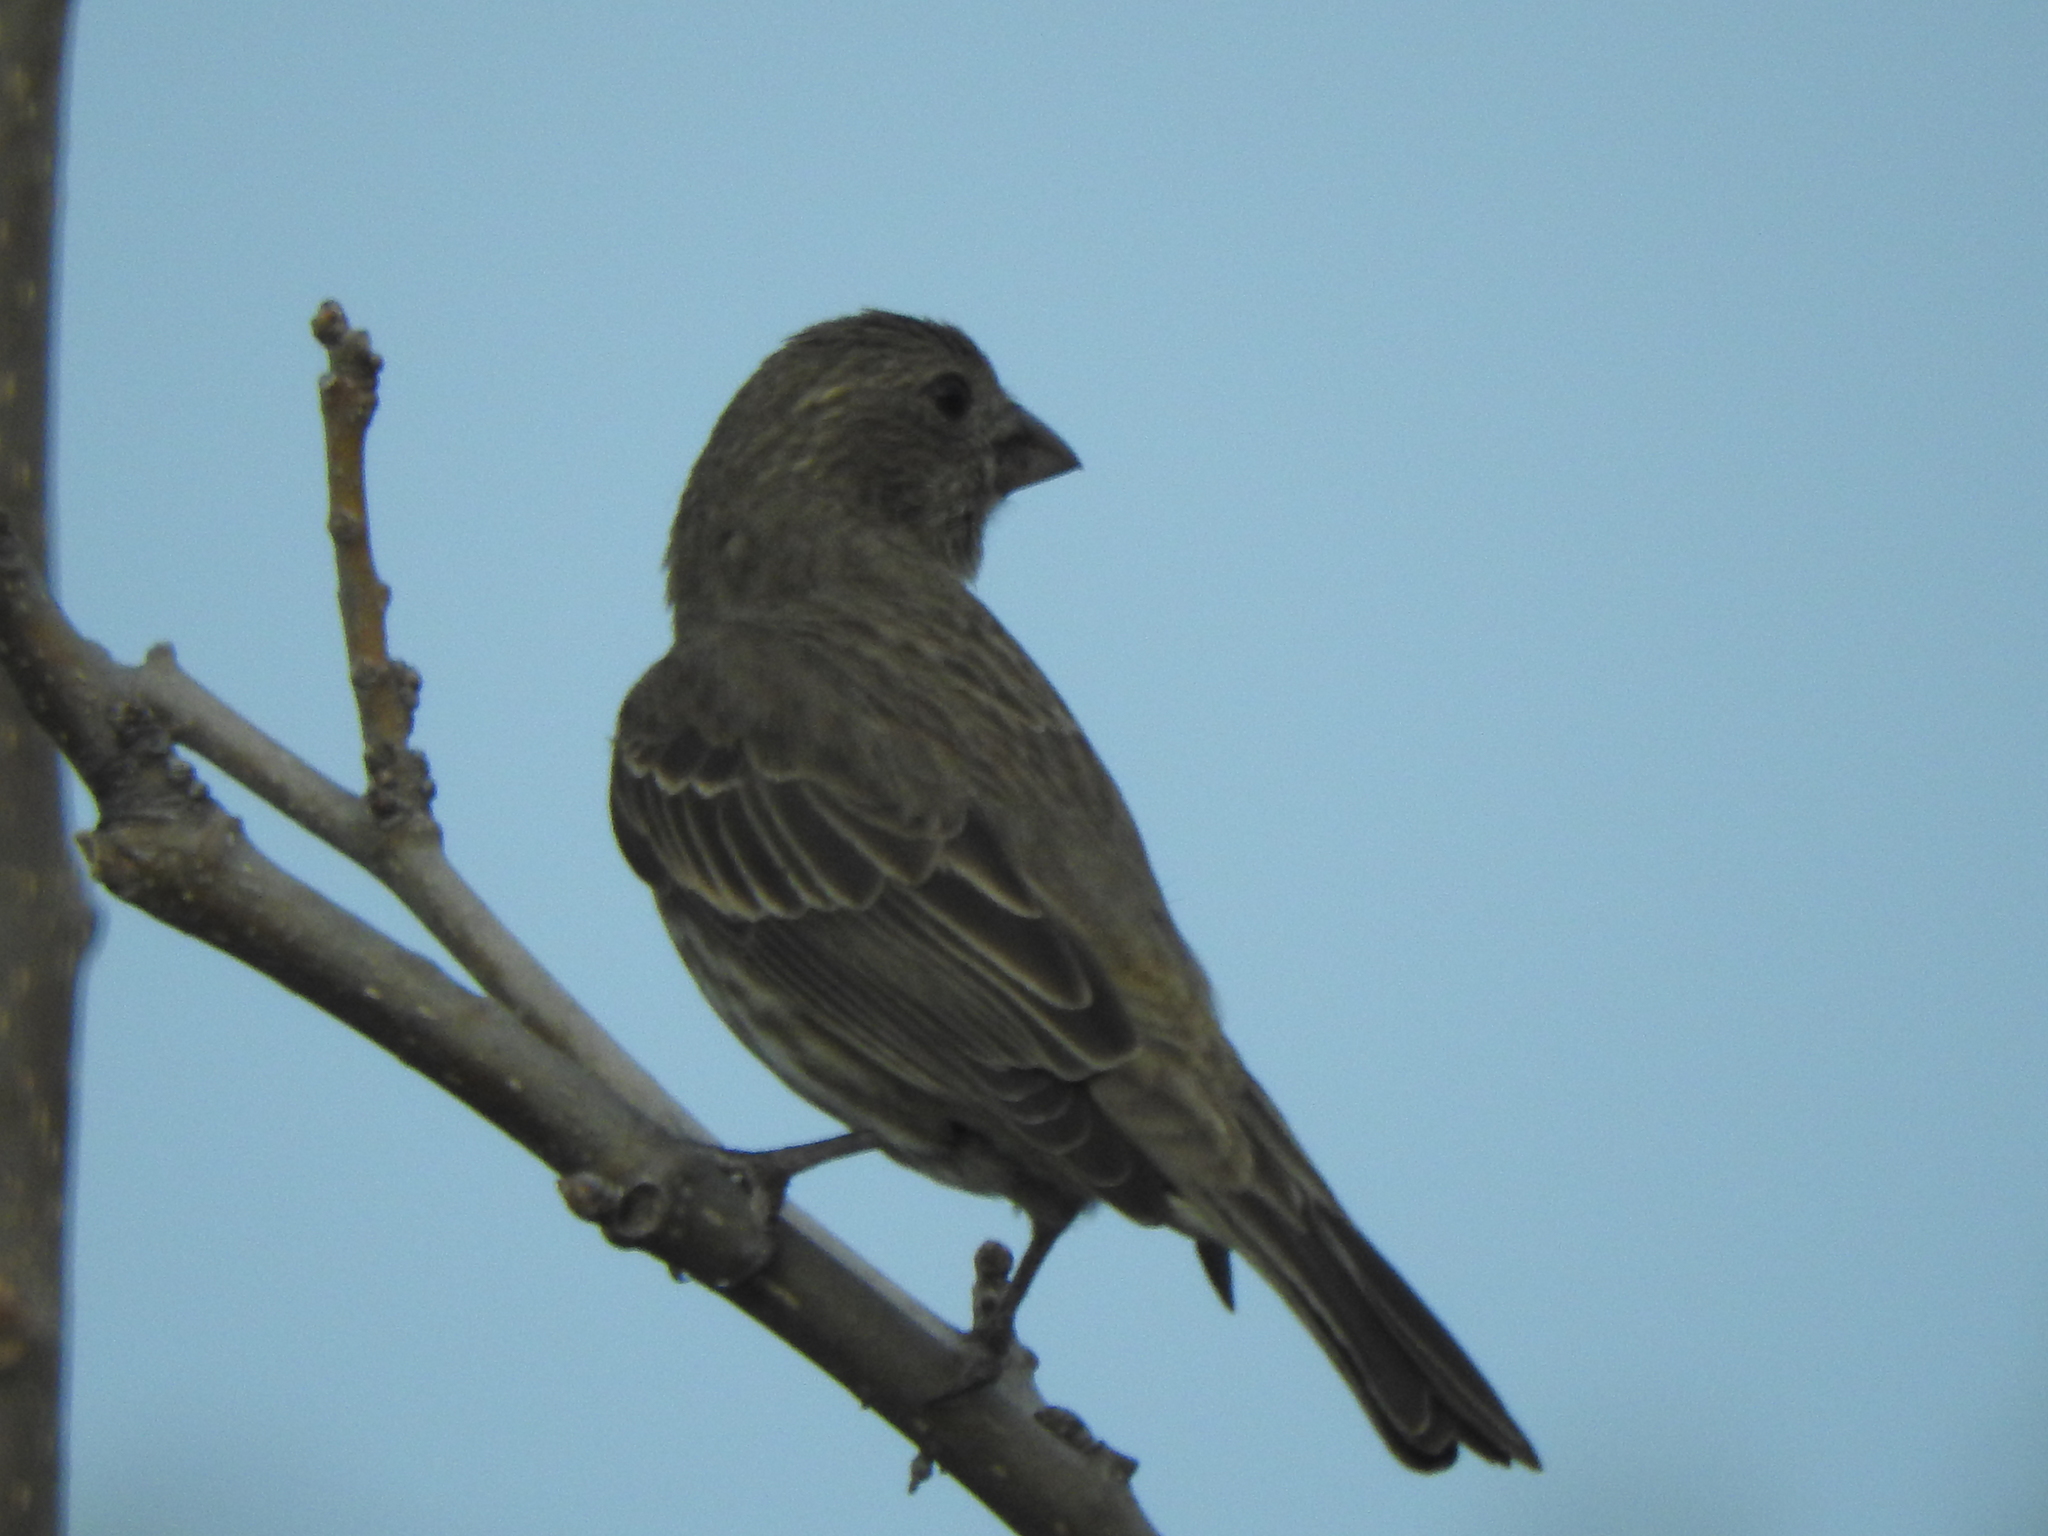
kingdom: Animalia
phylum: Chordata
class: Aves
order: Passeriformes
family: Fringillidae
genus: Haemorhous
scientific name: Haemorhous mexicanus
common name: House finch
